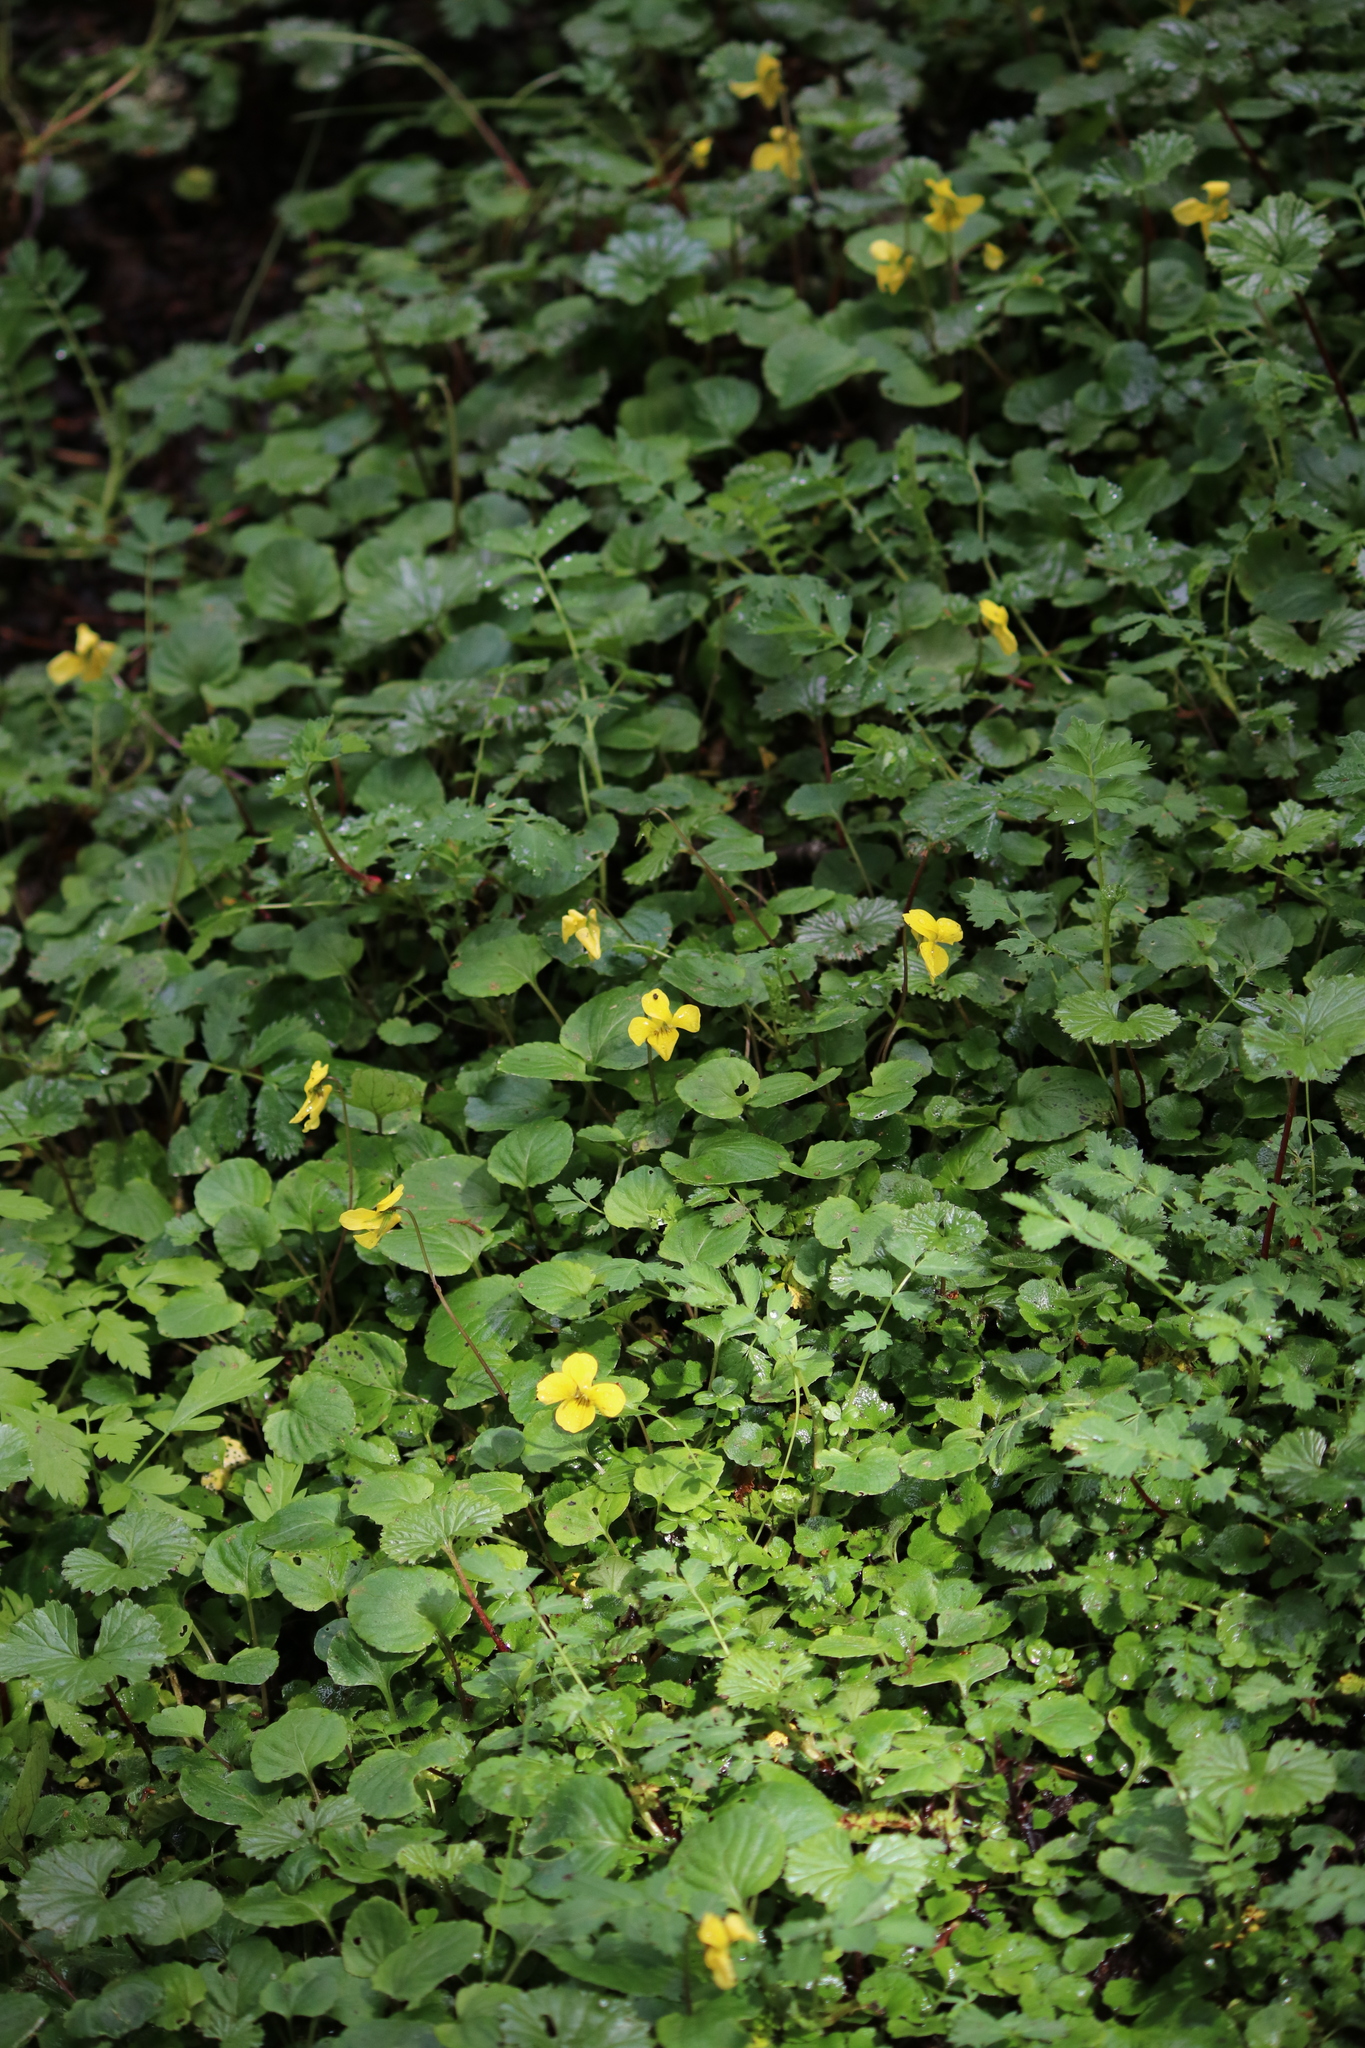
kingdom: Plantae
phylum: Tracheophyta
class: Magnoliopsida
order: Malpighiales
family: Violaceae
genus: Viola
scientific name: Viola reichei
